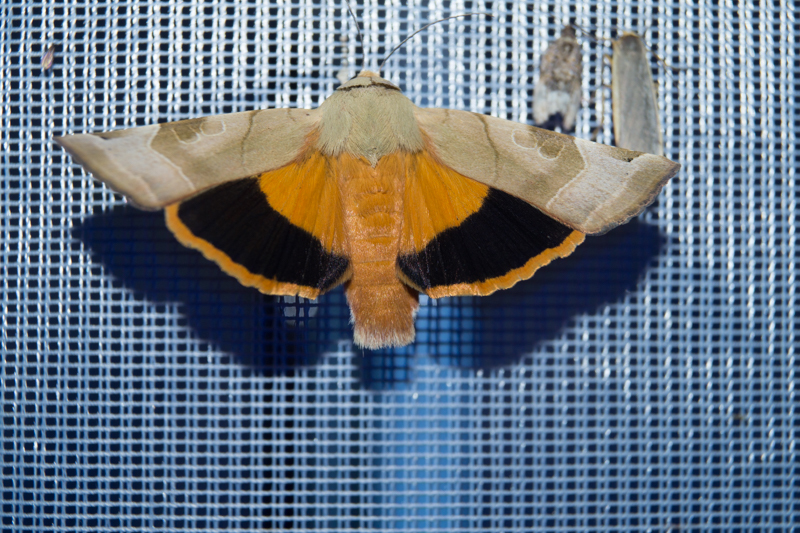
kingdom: Animalia
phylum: Arthropoda
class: Insecta
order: Lepidoptera
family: Noctuidae
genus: Noctua
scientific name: Noctua fimbriata
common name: Broad-bordered yellow underwing
